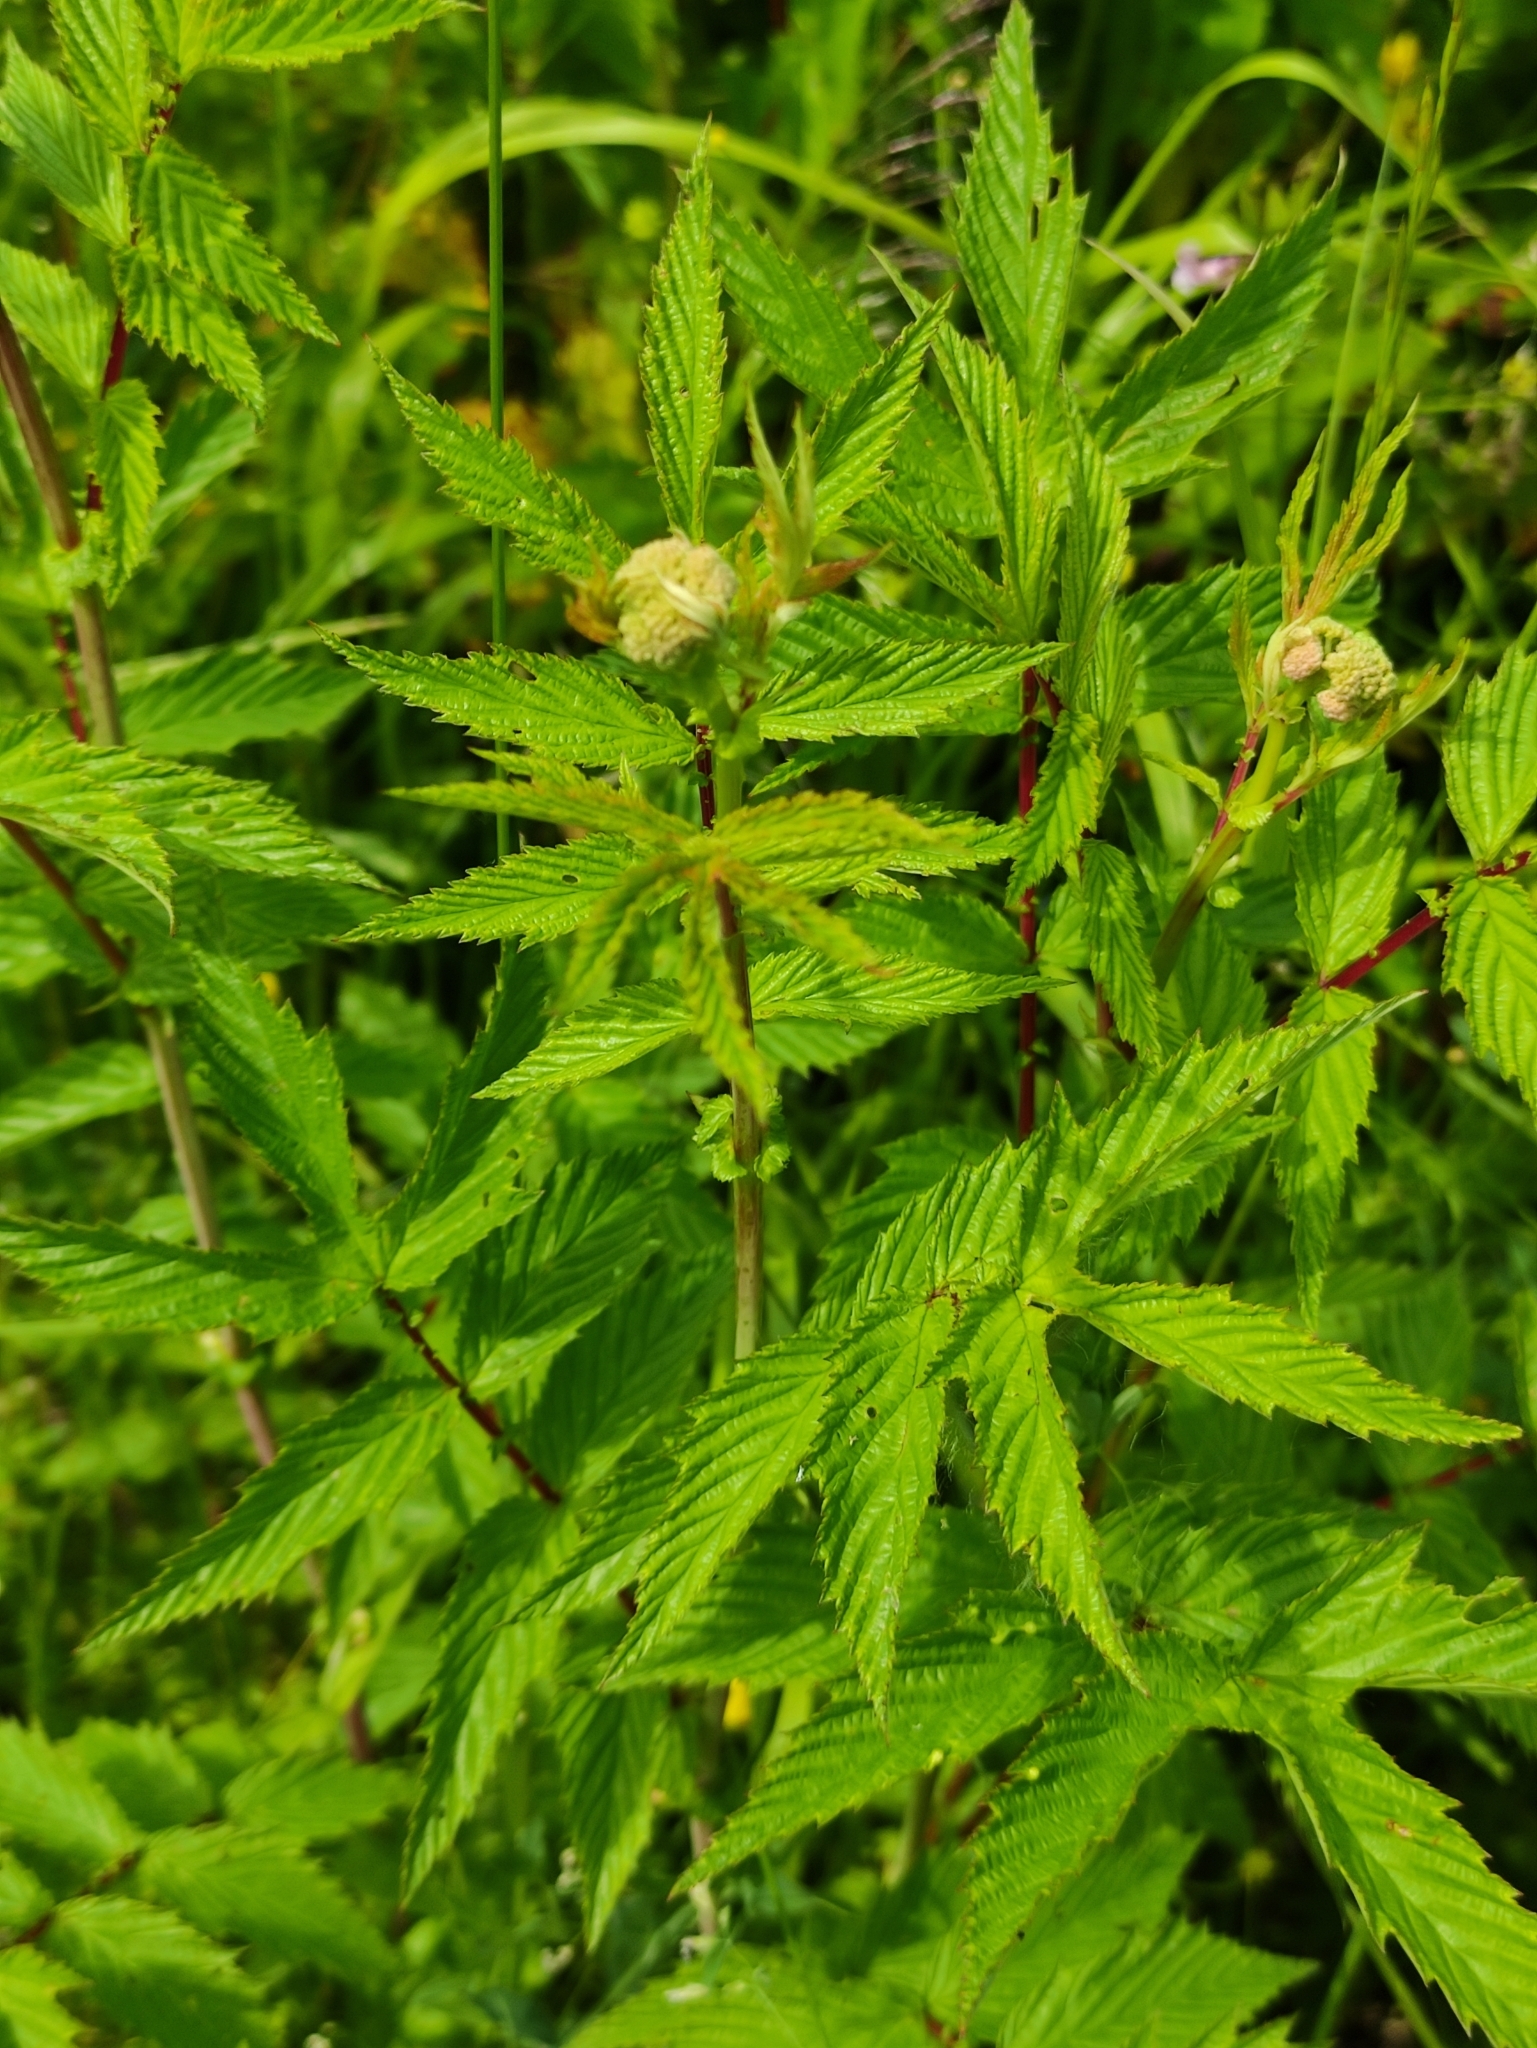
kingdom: Plantae
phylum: Tracheophyta
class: Magnoliopsida
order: Rosales
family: Rosaceae
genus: Filipendula
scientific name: Filipendula ulmaria
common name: Meadowsweet
